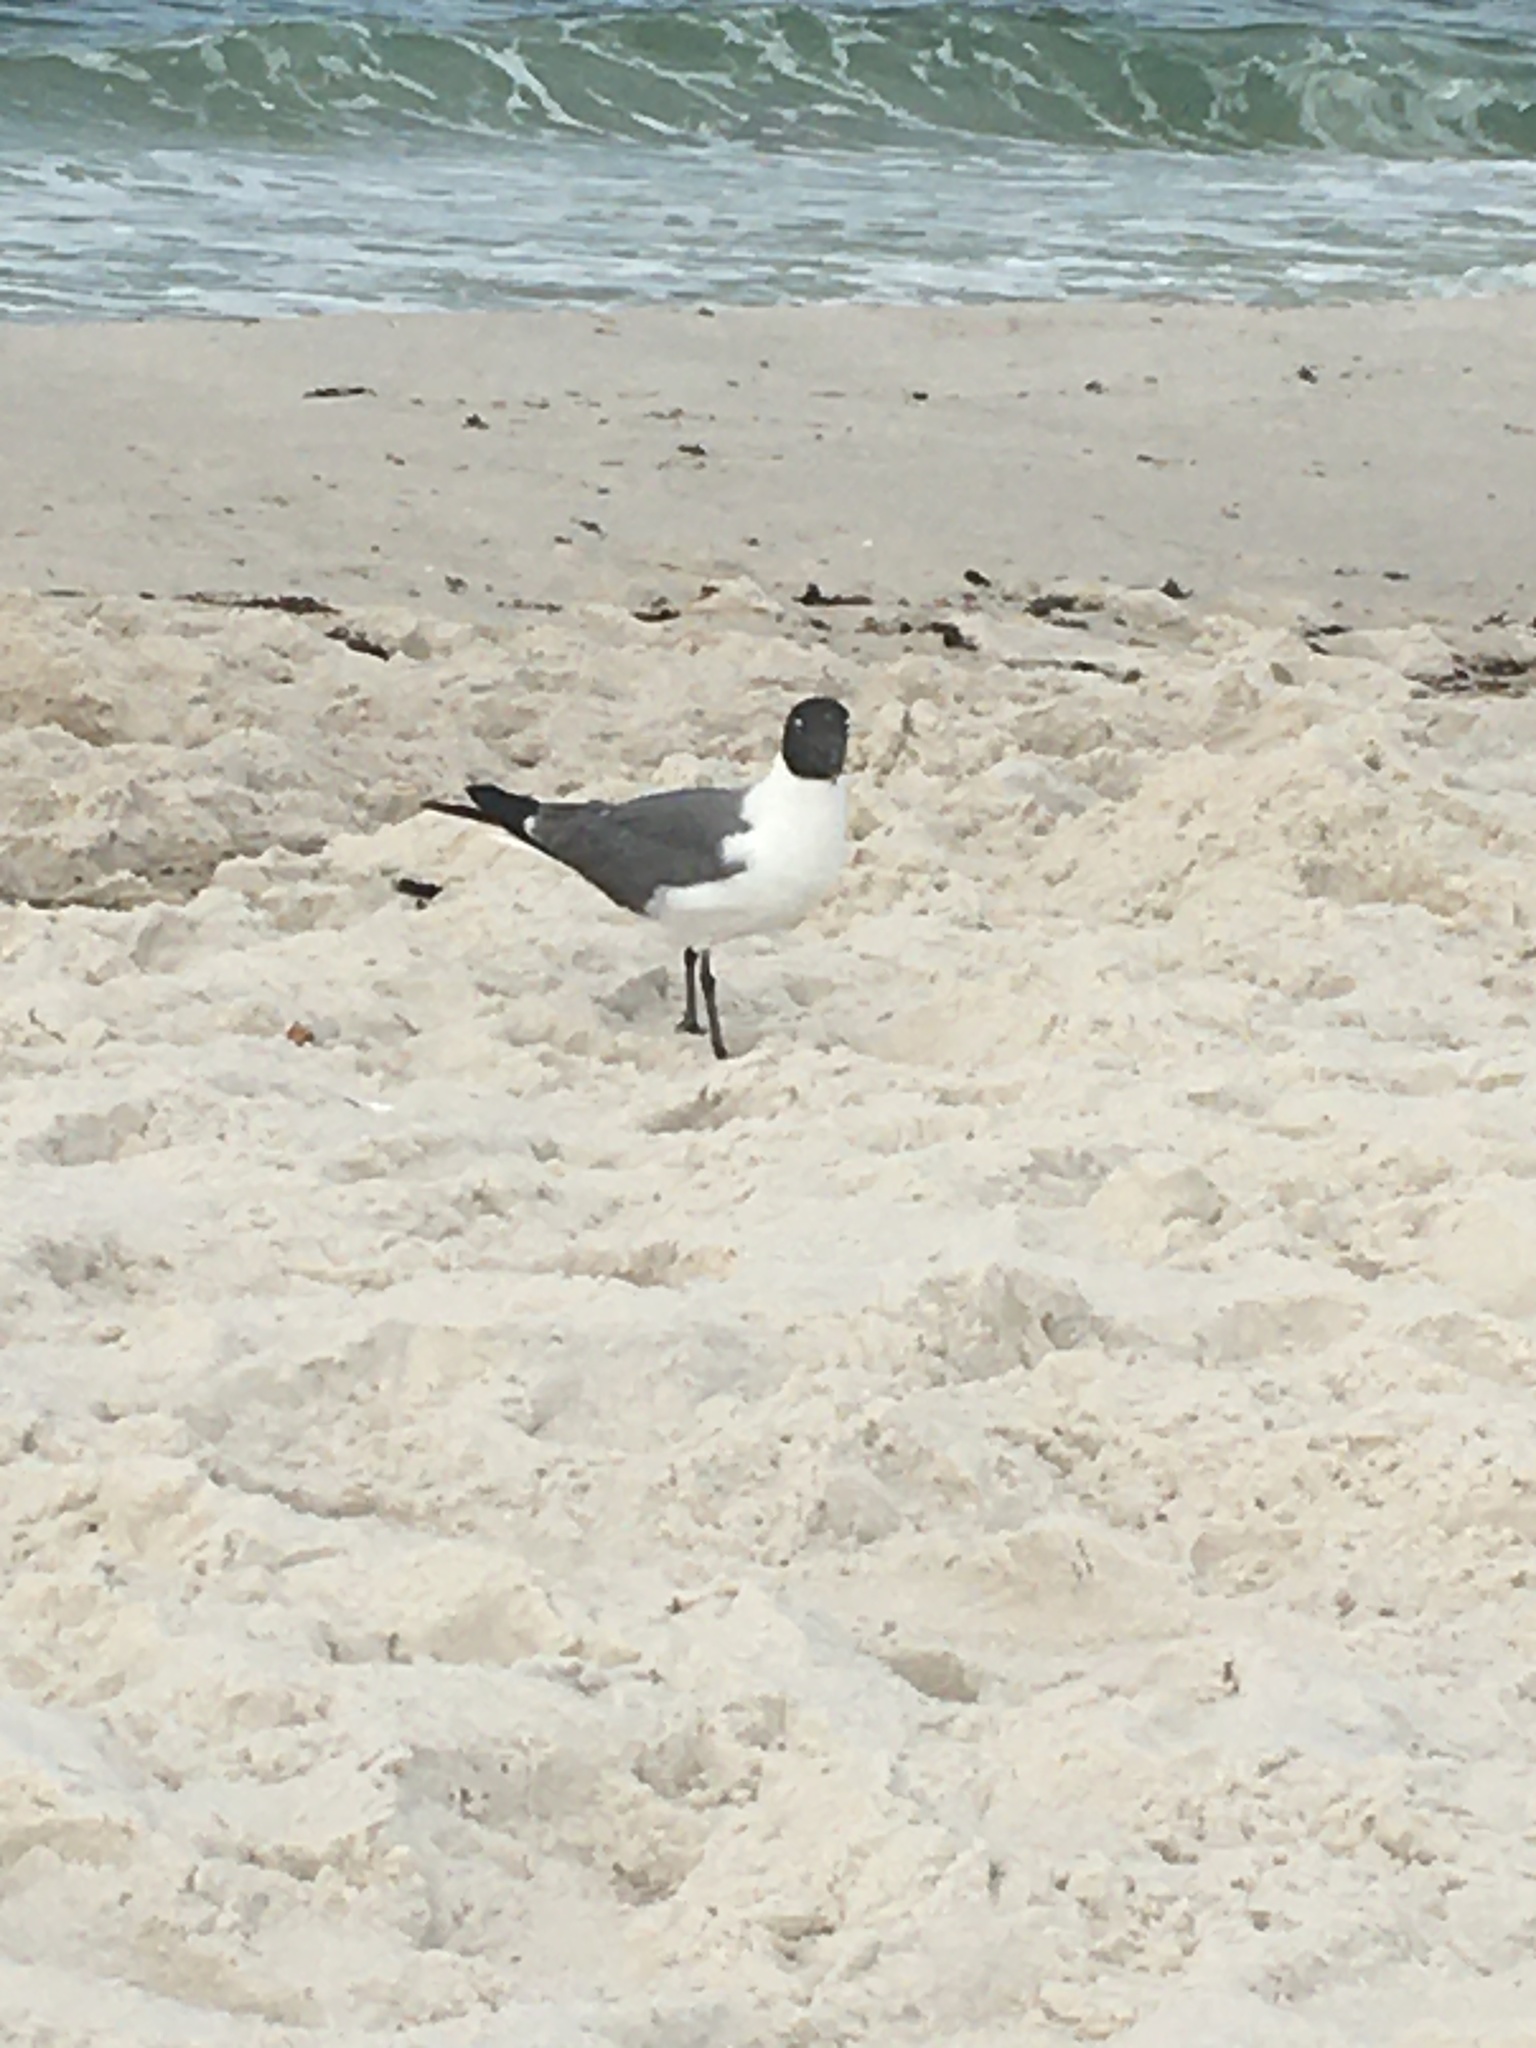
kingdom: Animalia
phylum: Chordata
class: Aves
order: Charadriiformes
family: Laridae
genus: Leucophaeus
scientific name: Leucophaeus atricilla
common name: Laughing gull
